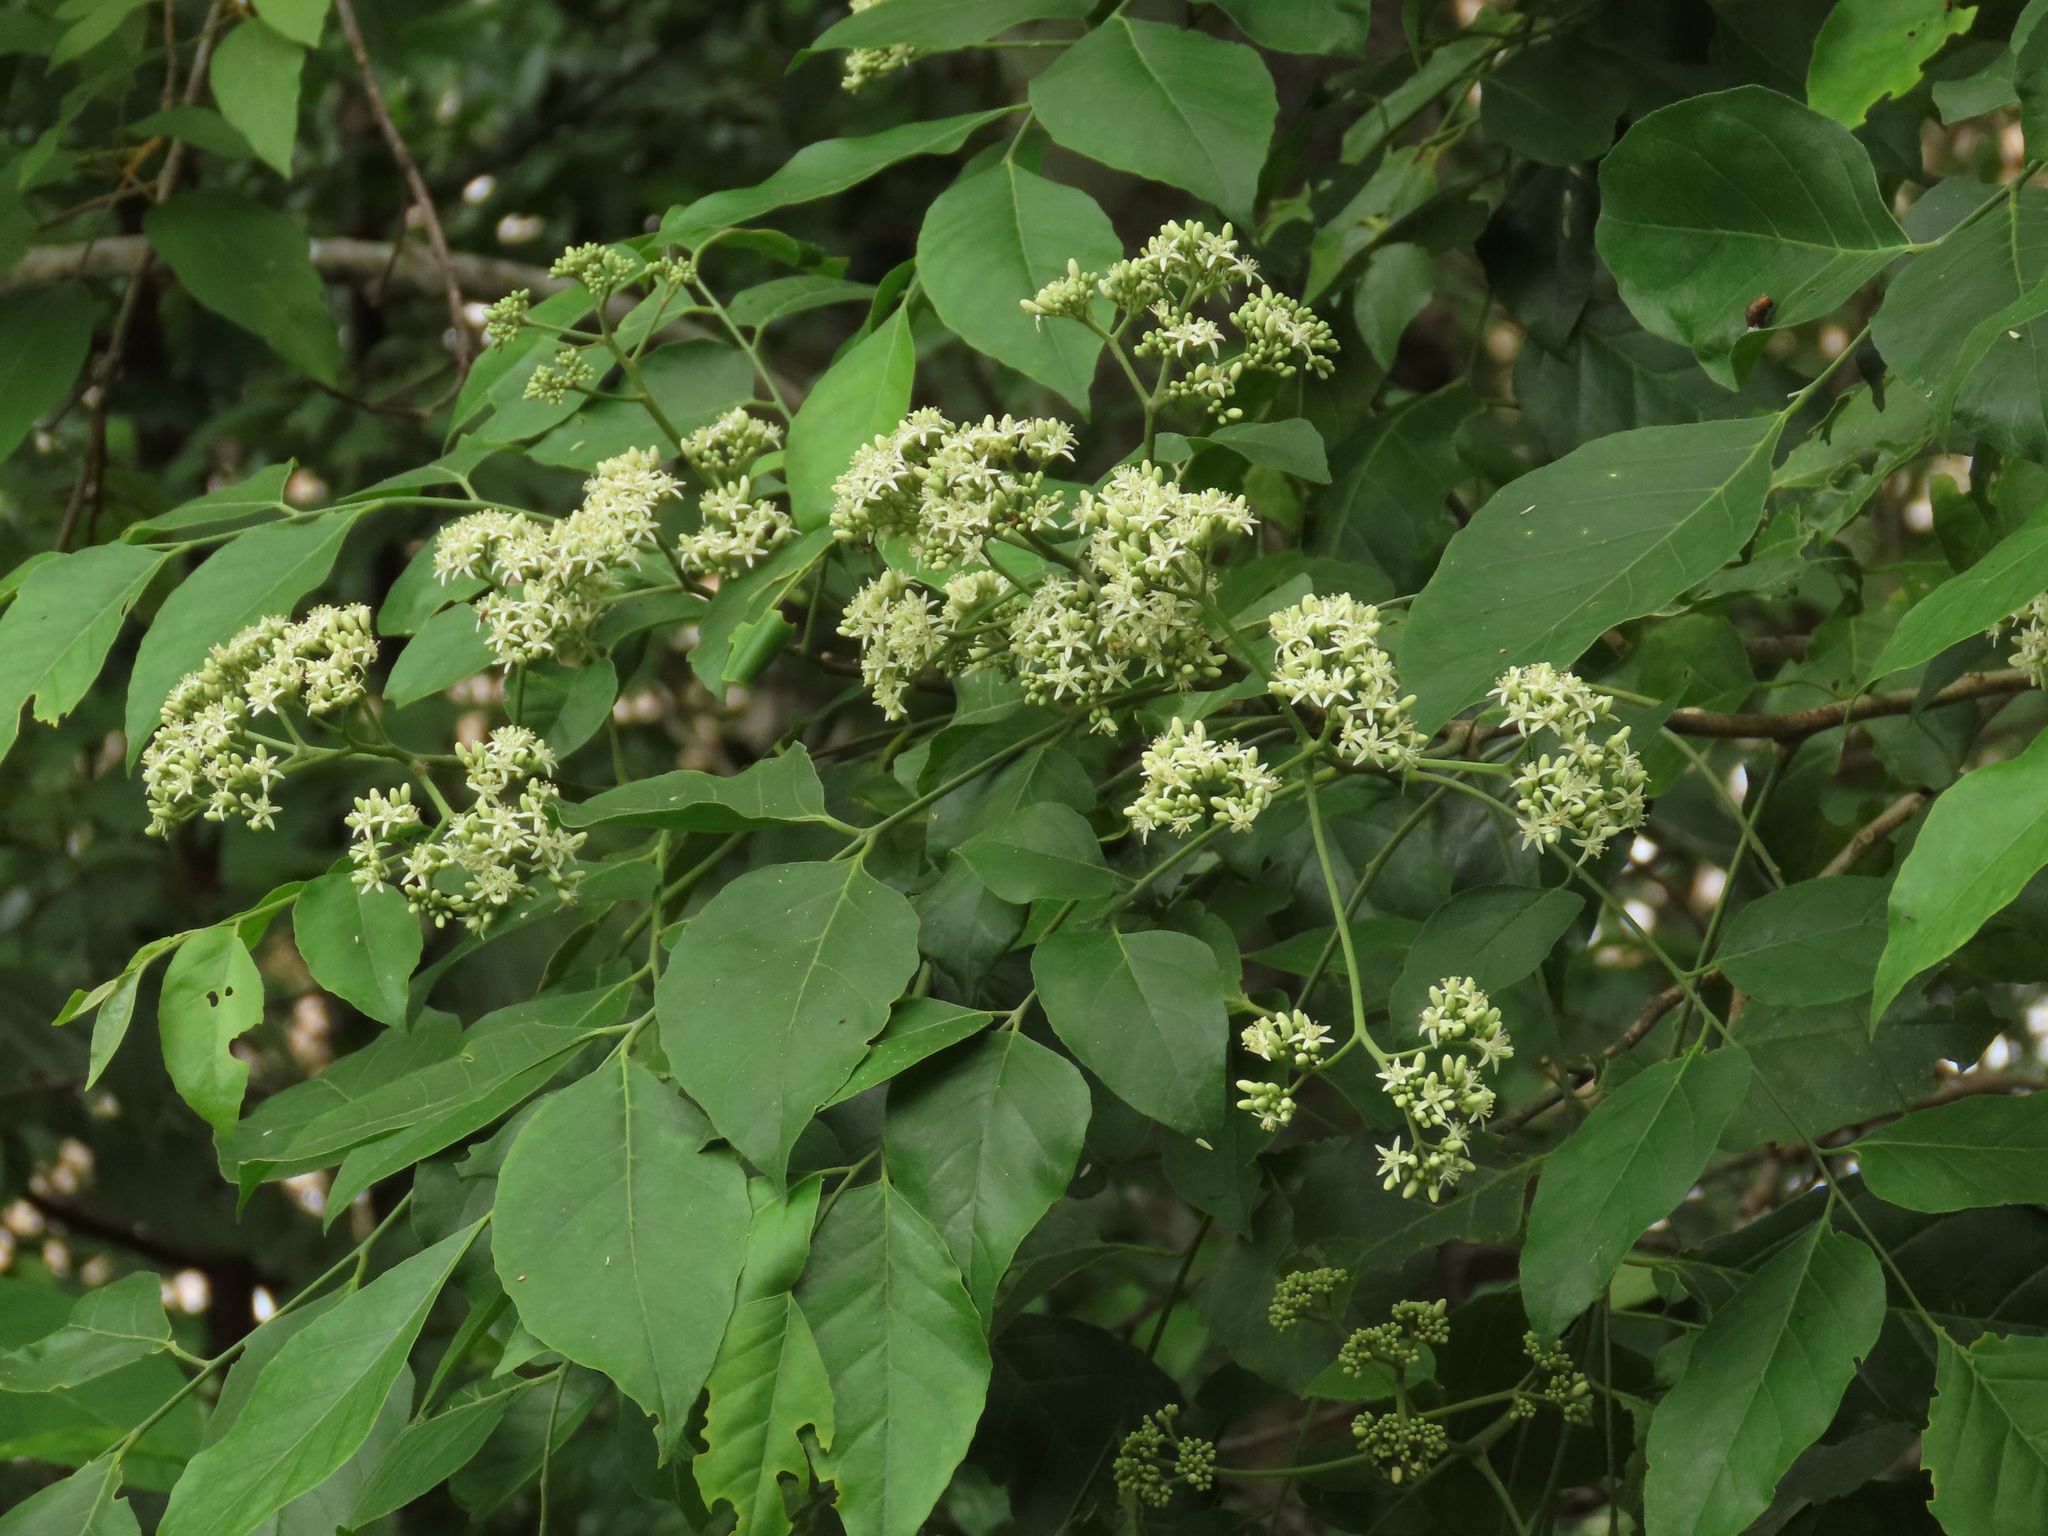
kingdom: Plantae
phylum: Tracheophyta
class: Magnoliopsida
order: Sapindales
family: Rutaceae
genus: Micromelum
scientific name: Micromelum minutum
